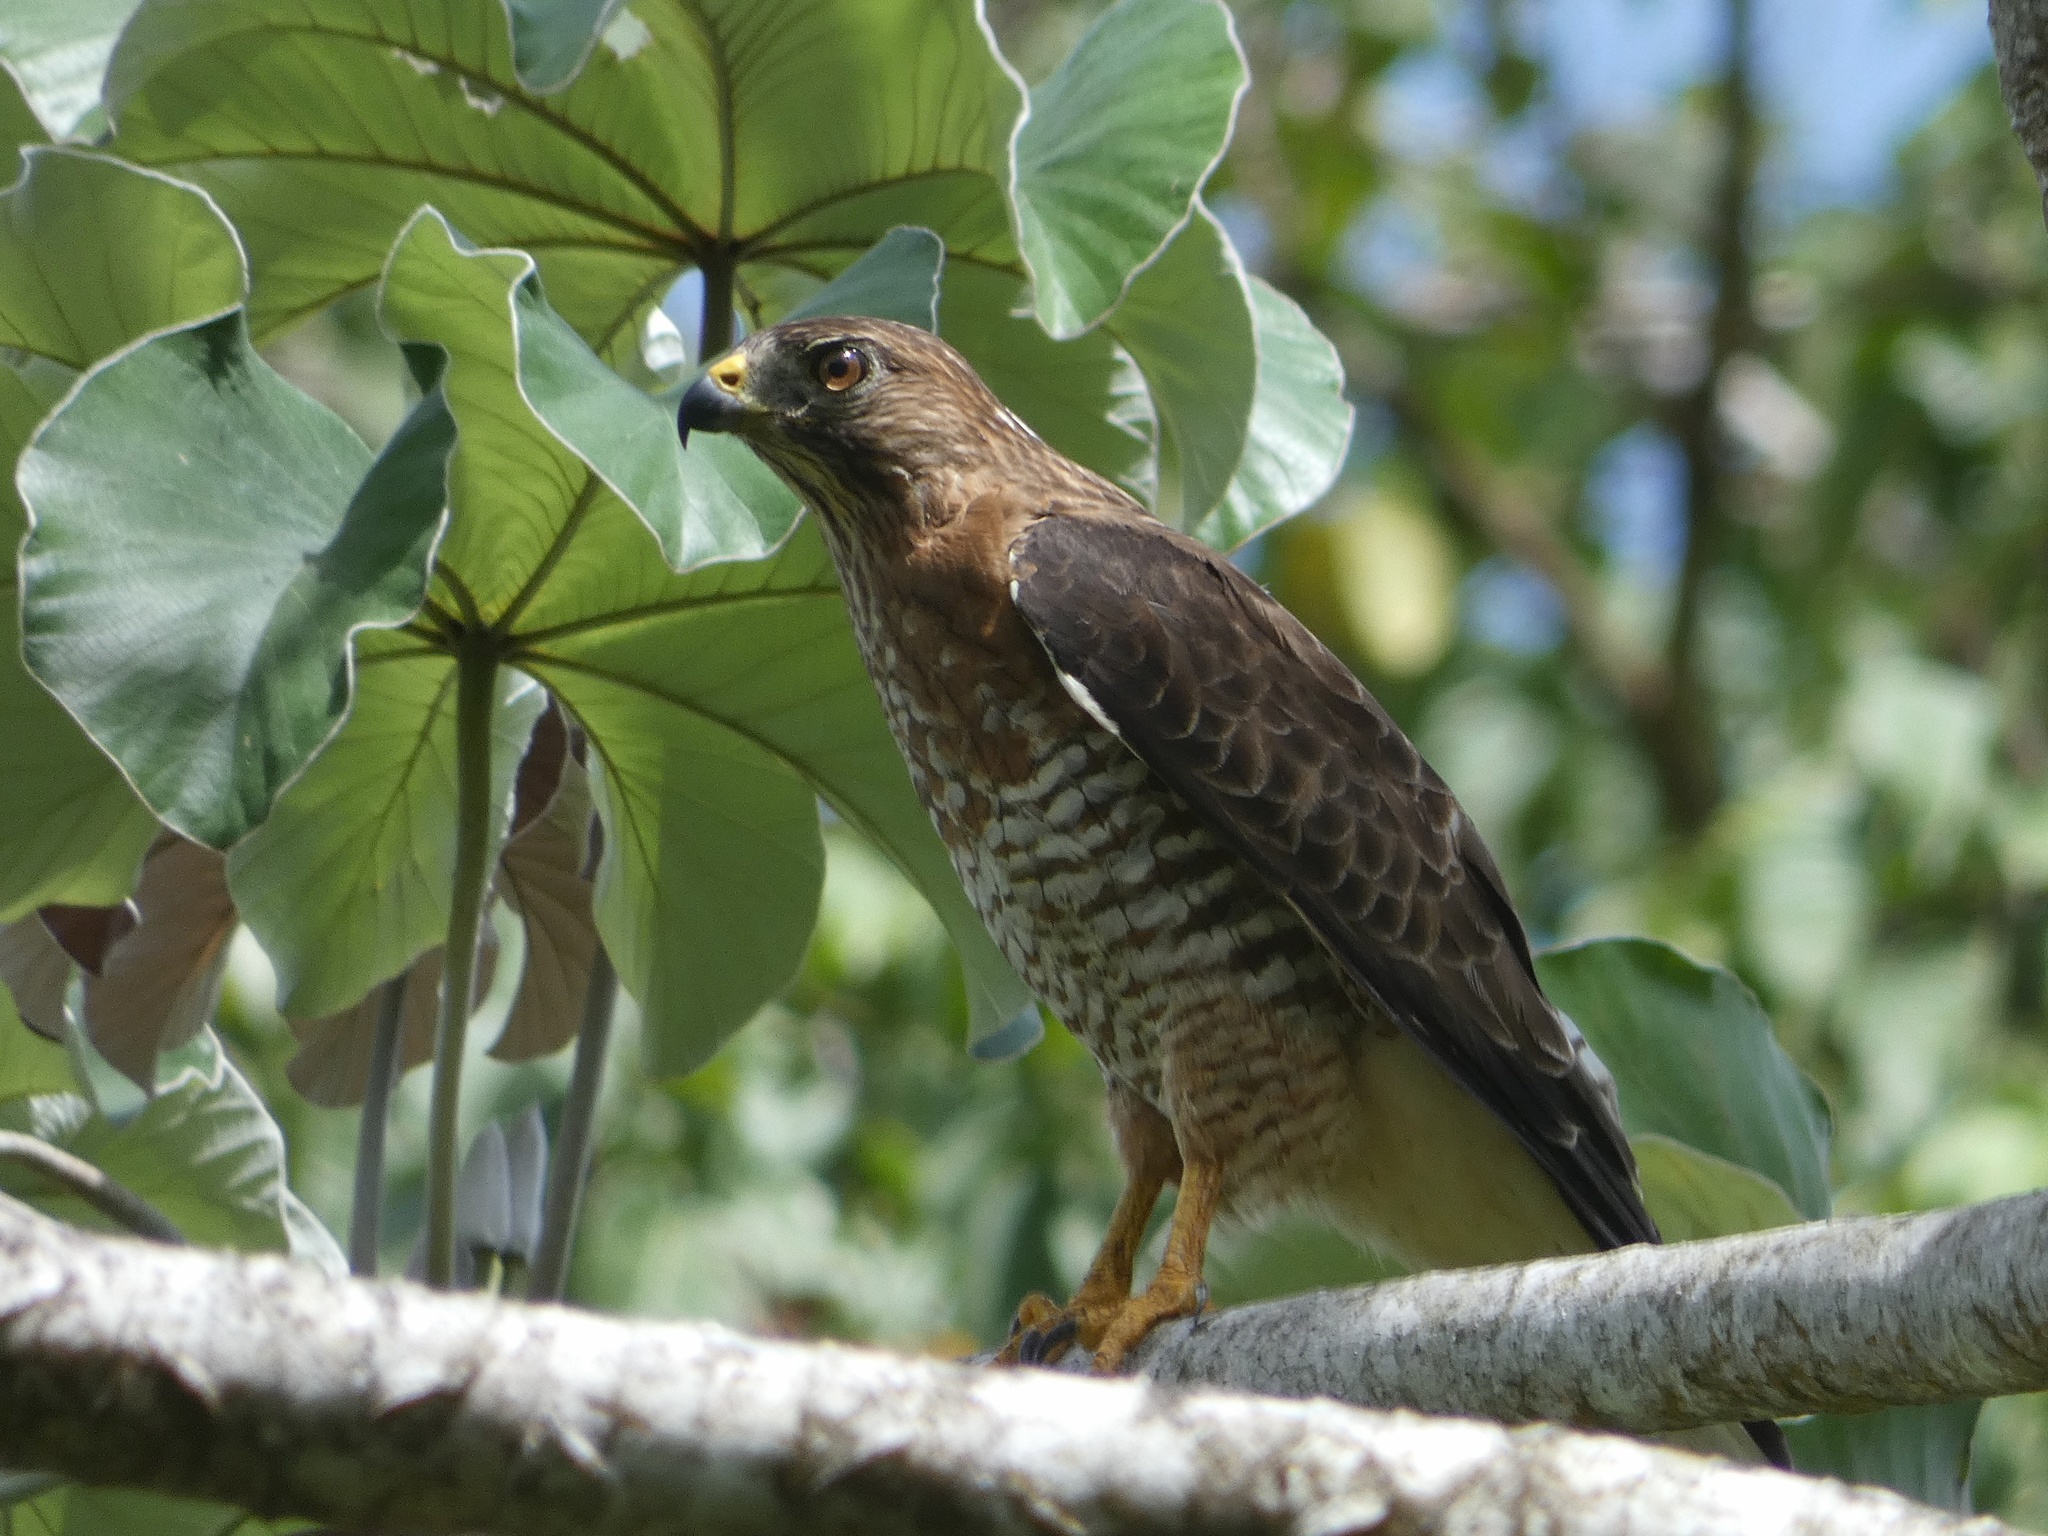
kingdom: Animalia
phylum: Chordata
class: Aves
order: Accipitriformes
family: Accipitridae
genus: Buteo
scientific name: Buteo platypterus
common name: Broad-winged hawk
